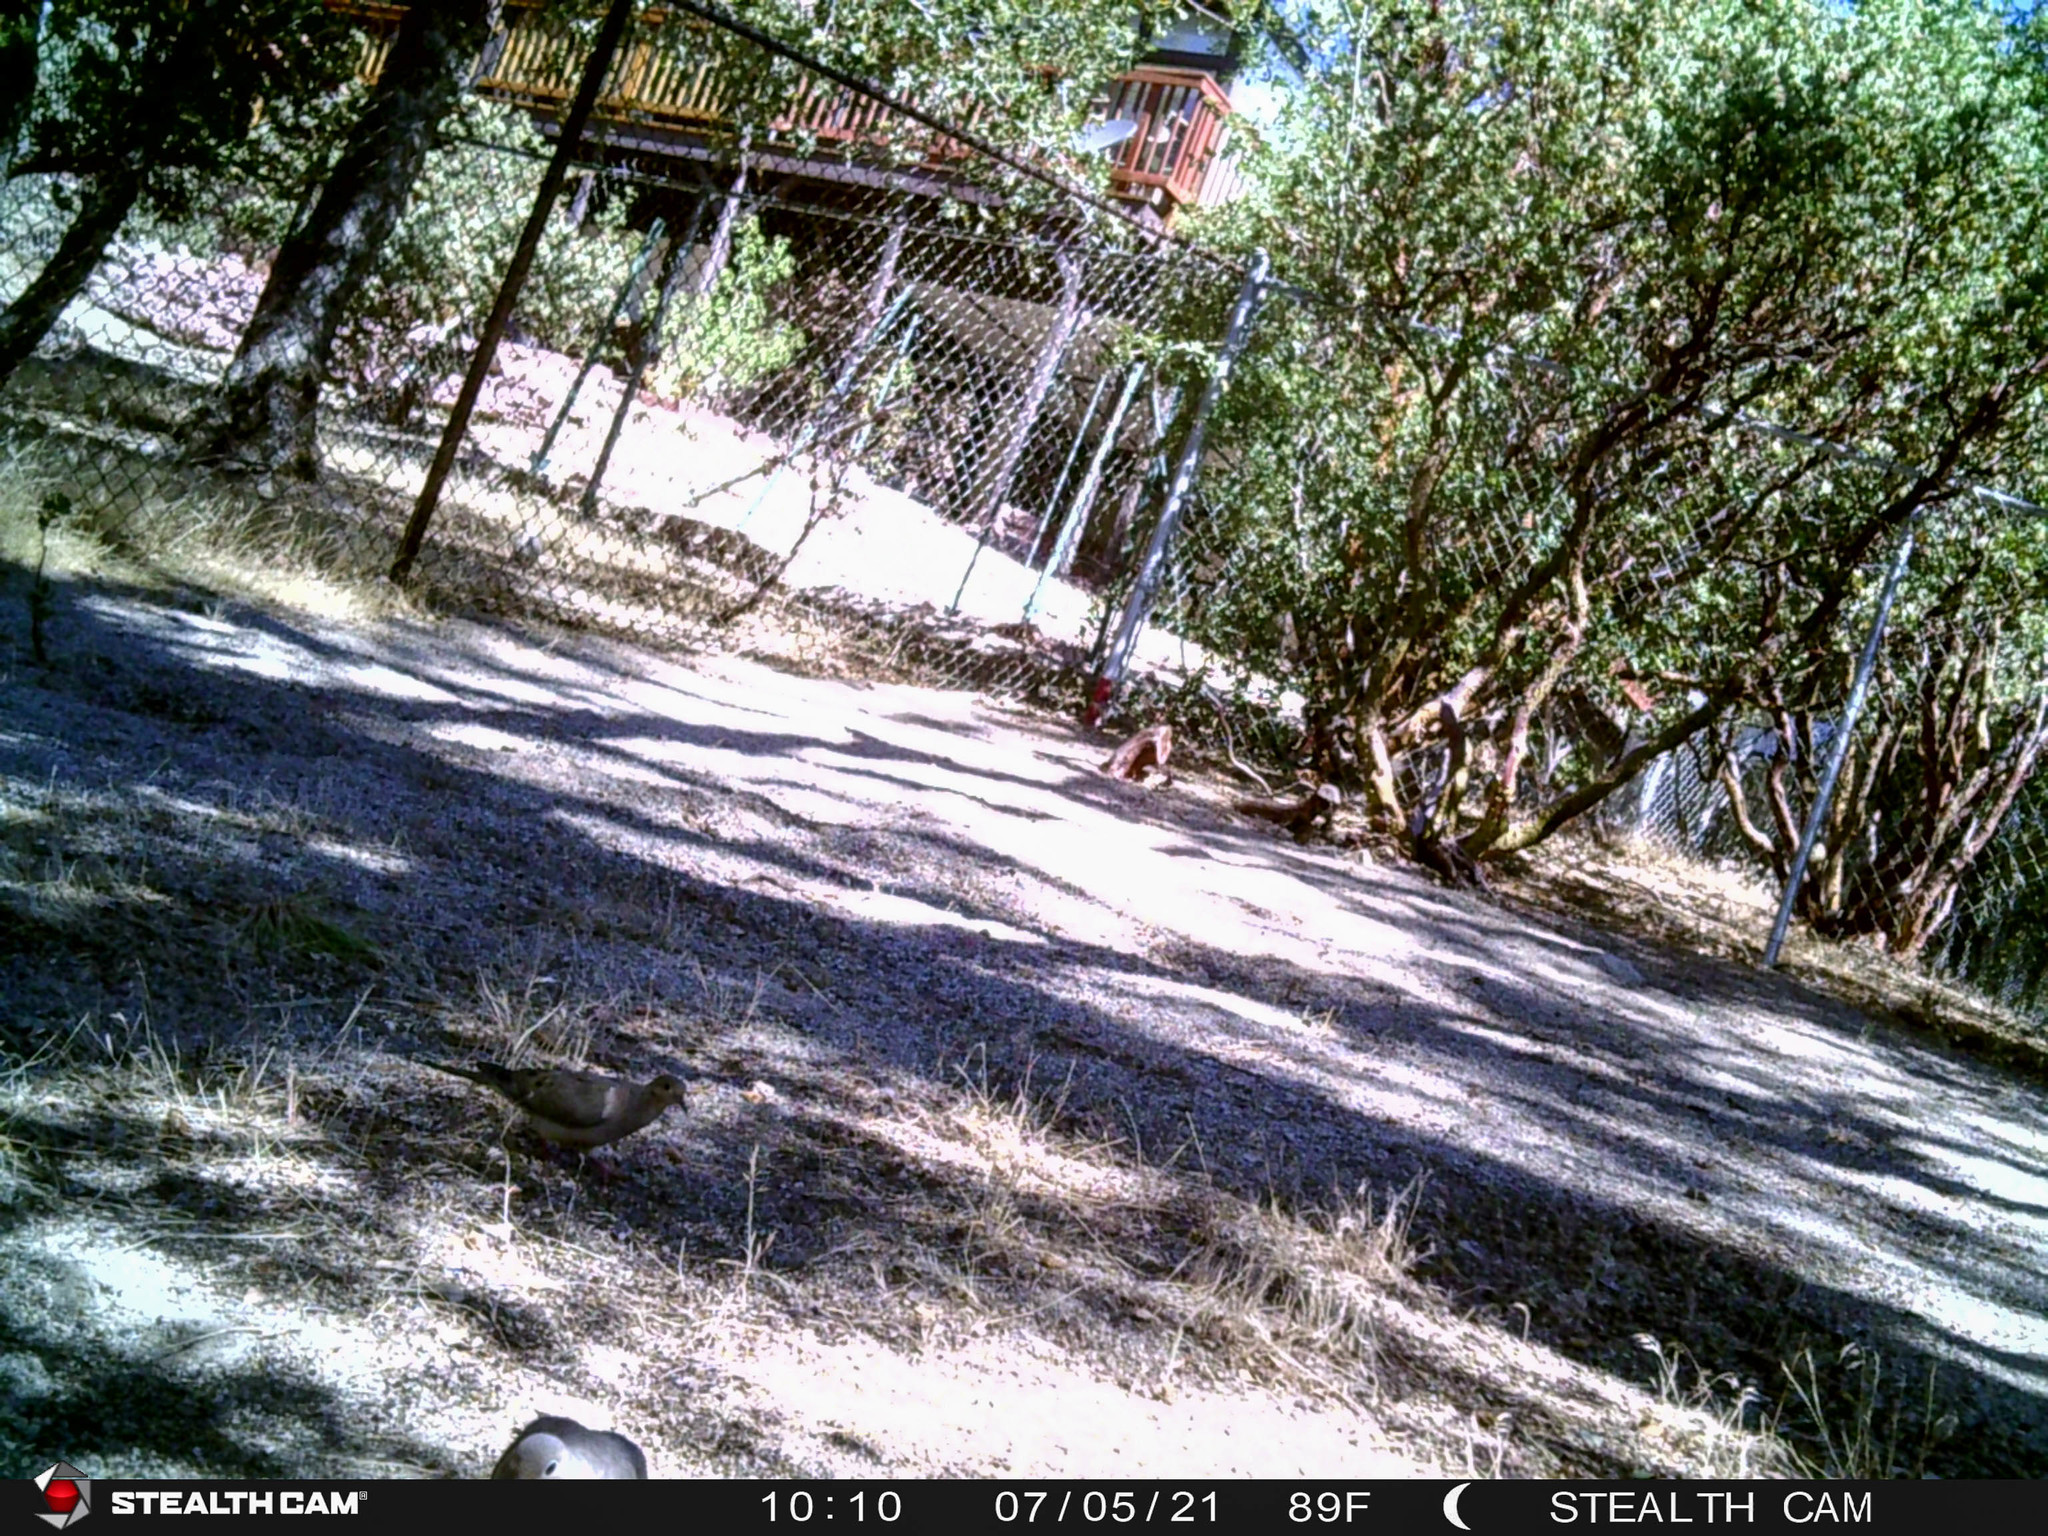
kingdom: Animalia
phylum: Chordata
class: Aves
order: Columbiformes
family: Columbidae
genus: Zenaida
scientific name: Zenaida macroura
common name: Mourning dove
